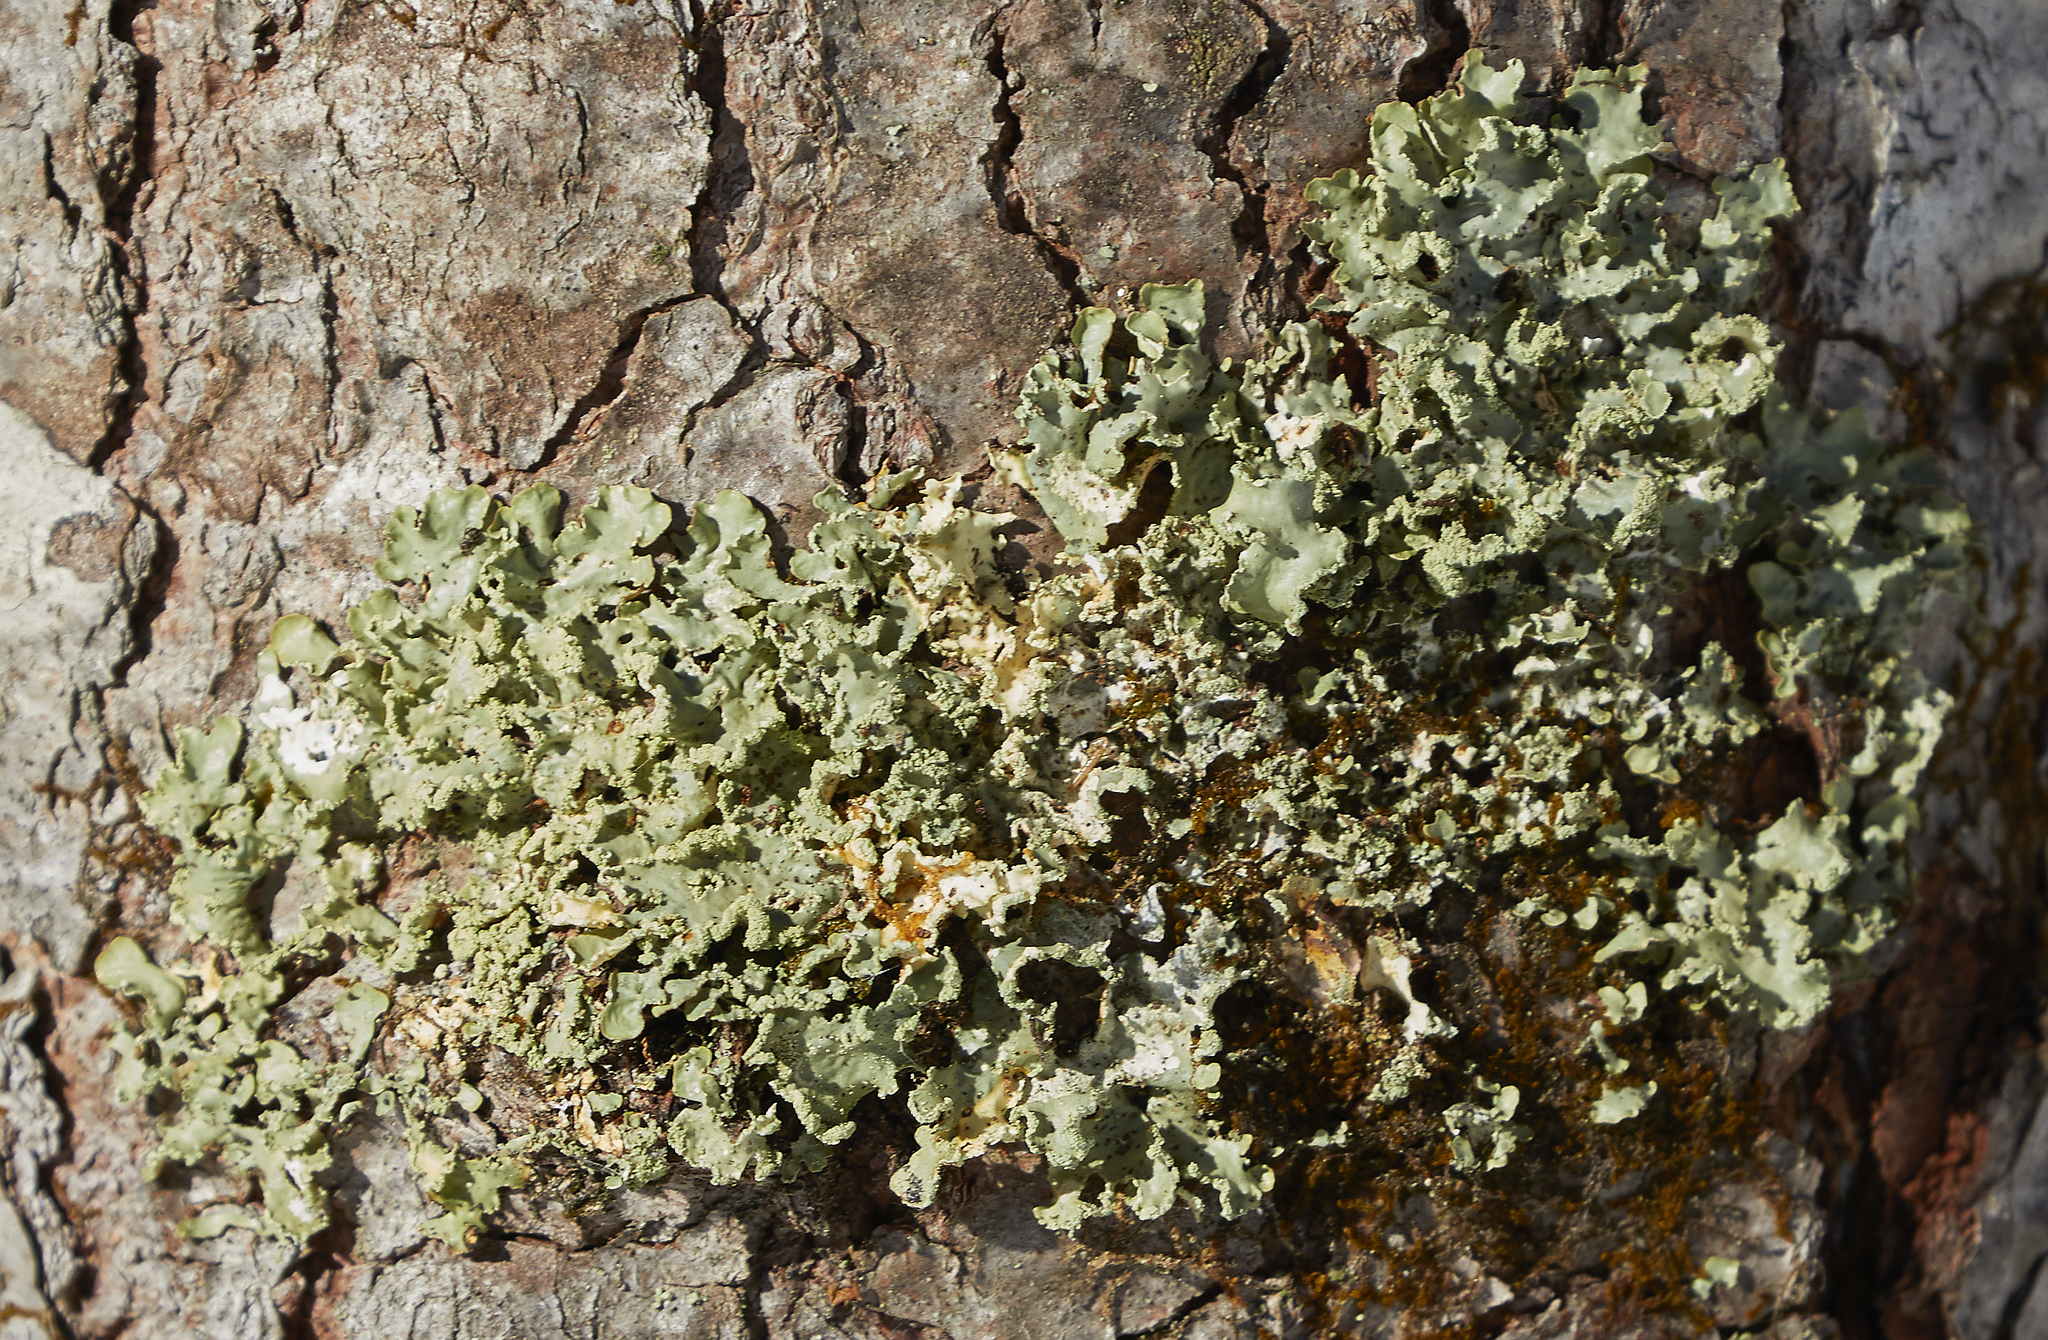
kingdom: Fungi
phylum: Ascomycota
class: Lecanoromycetes
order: Lecanorales
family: Parmeliaceae
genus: Usnocetraria
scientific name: Usnocetraria oakesiana
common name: Yellow ribbon lichen
